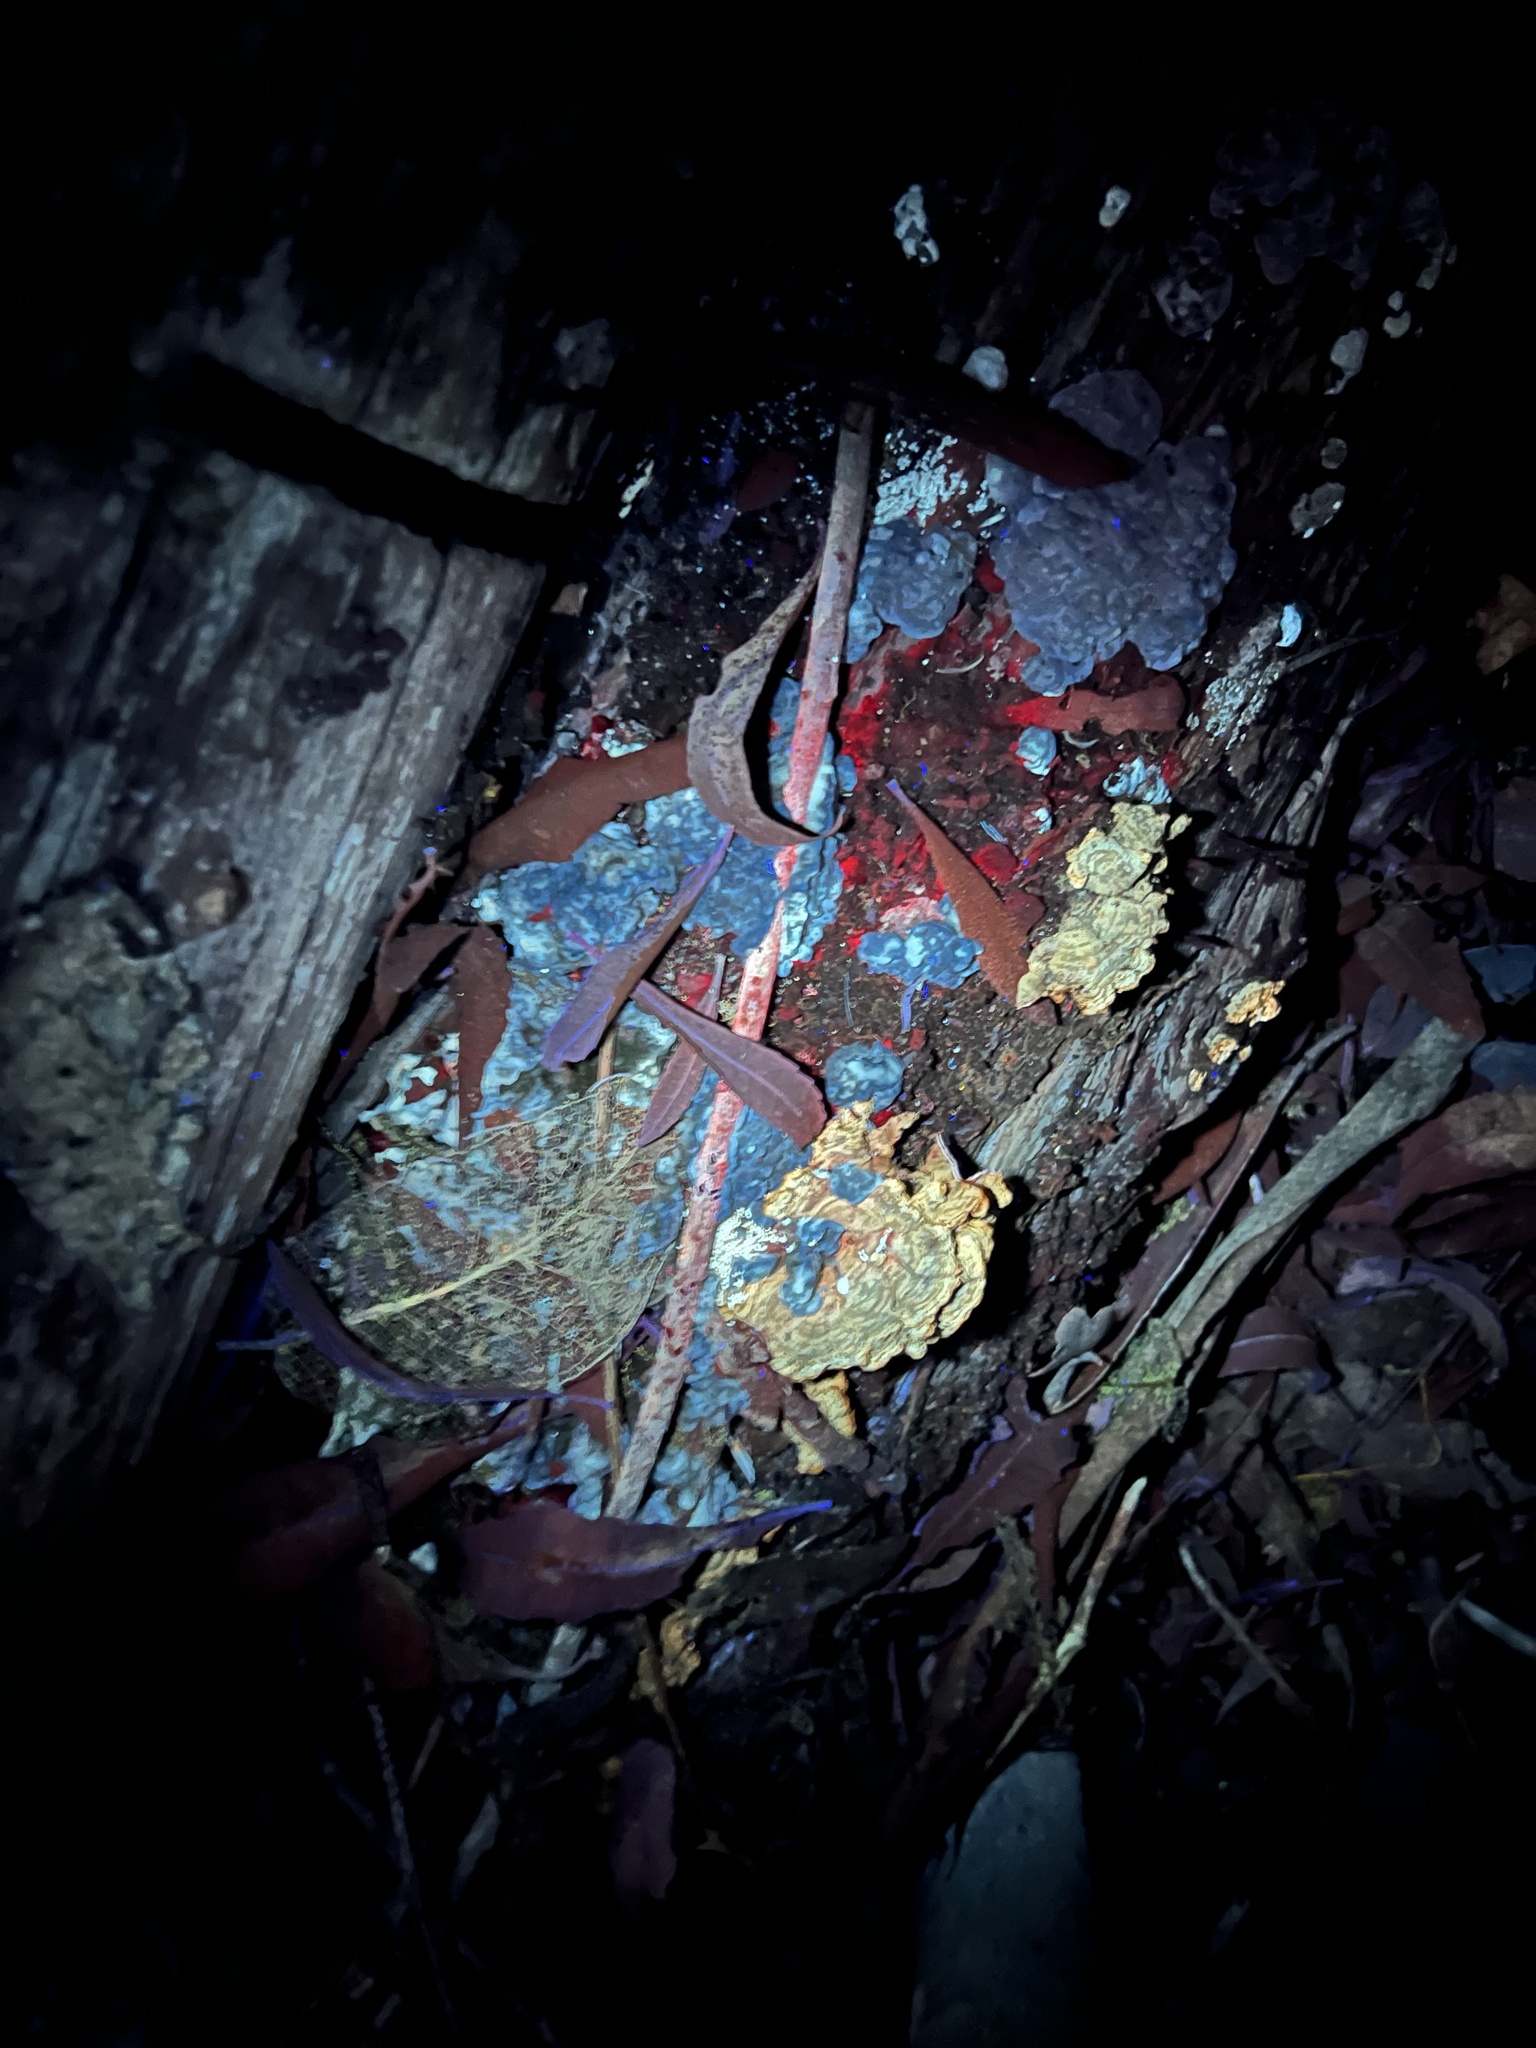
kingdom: Fungi
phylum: Basidiomycota
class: Agaricomycetes
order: Russulales
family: Stereaceae
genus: Stereum
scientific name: Stereum hirsutum
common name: Hairy curtain crust
